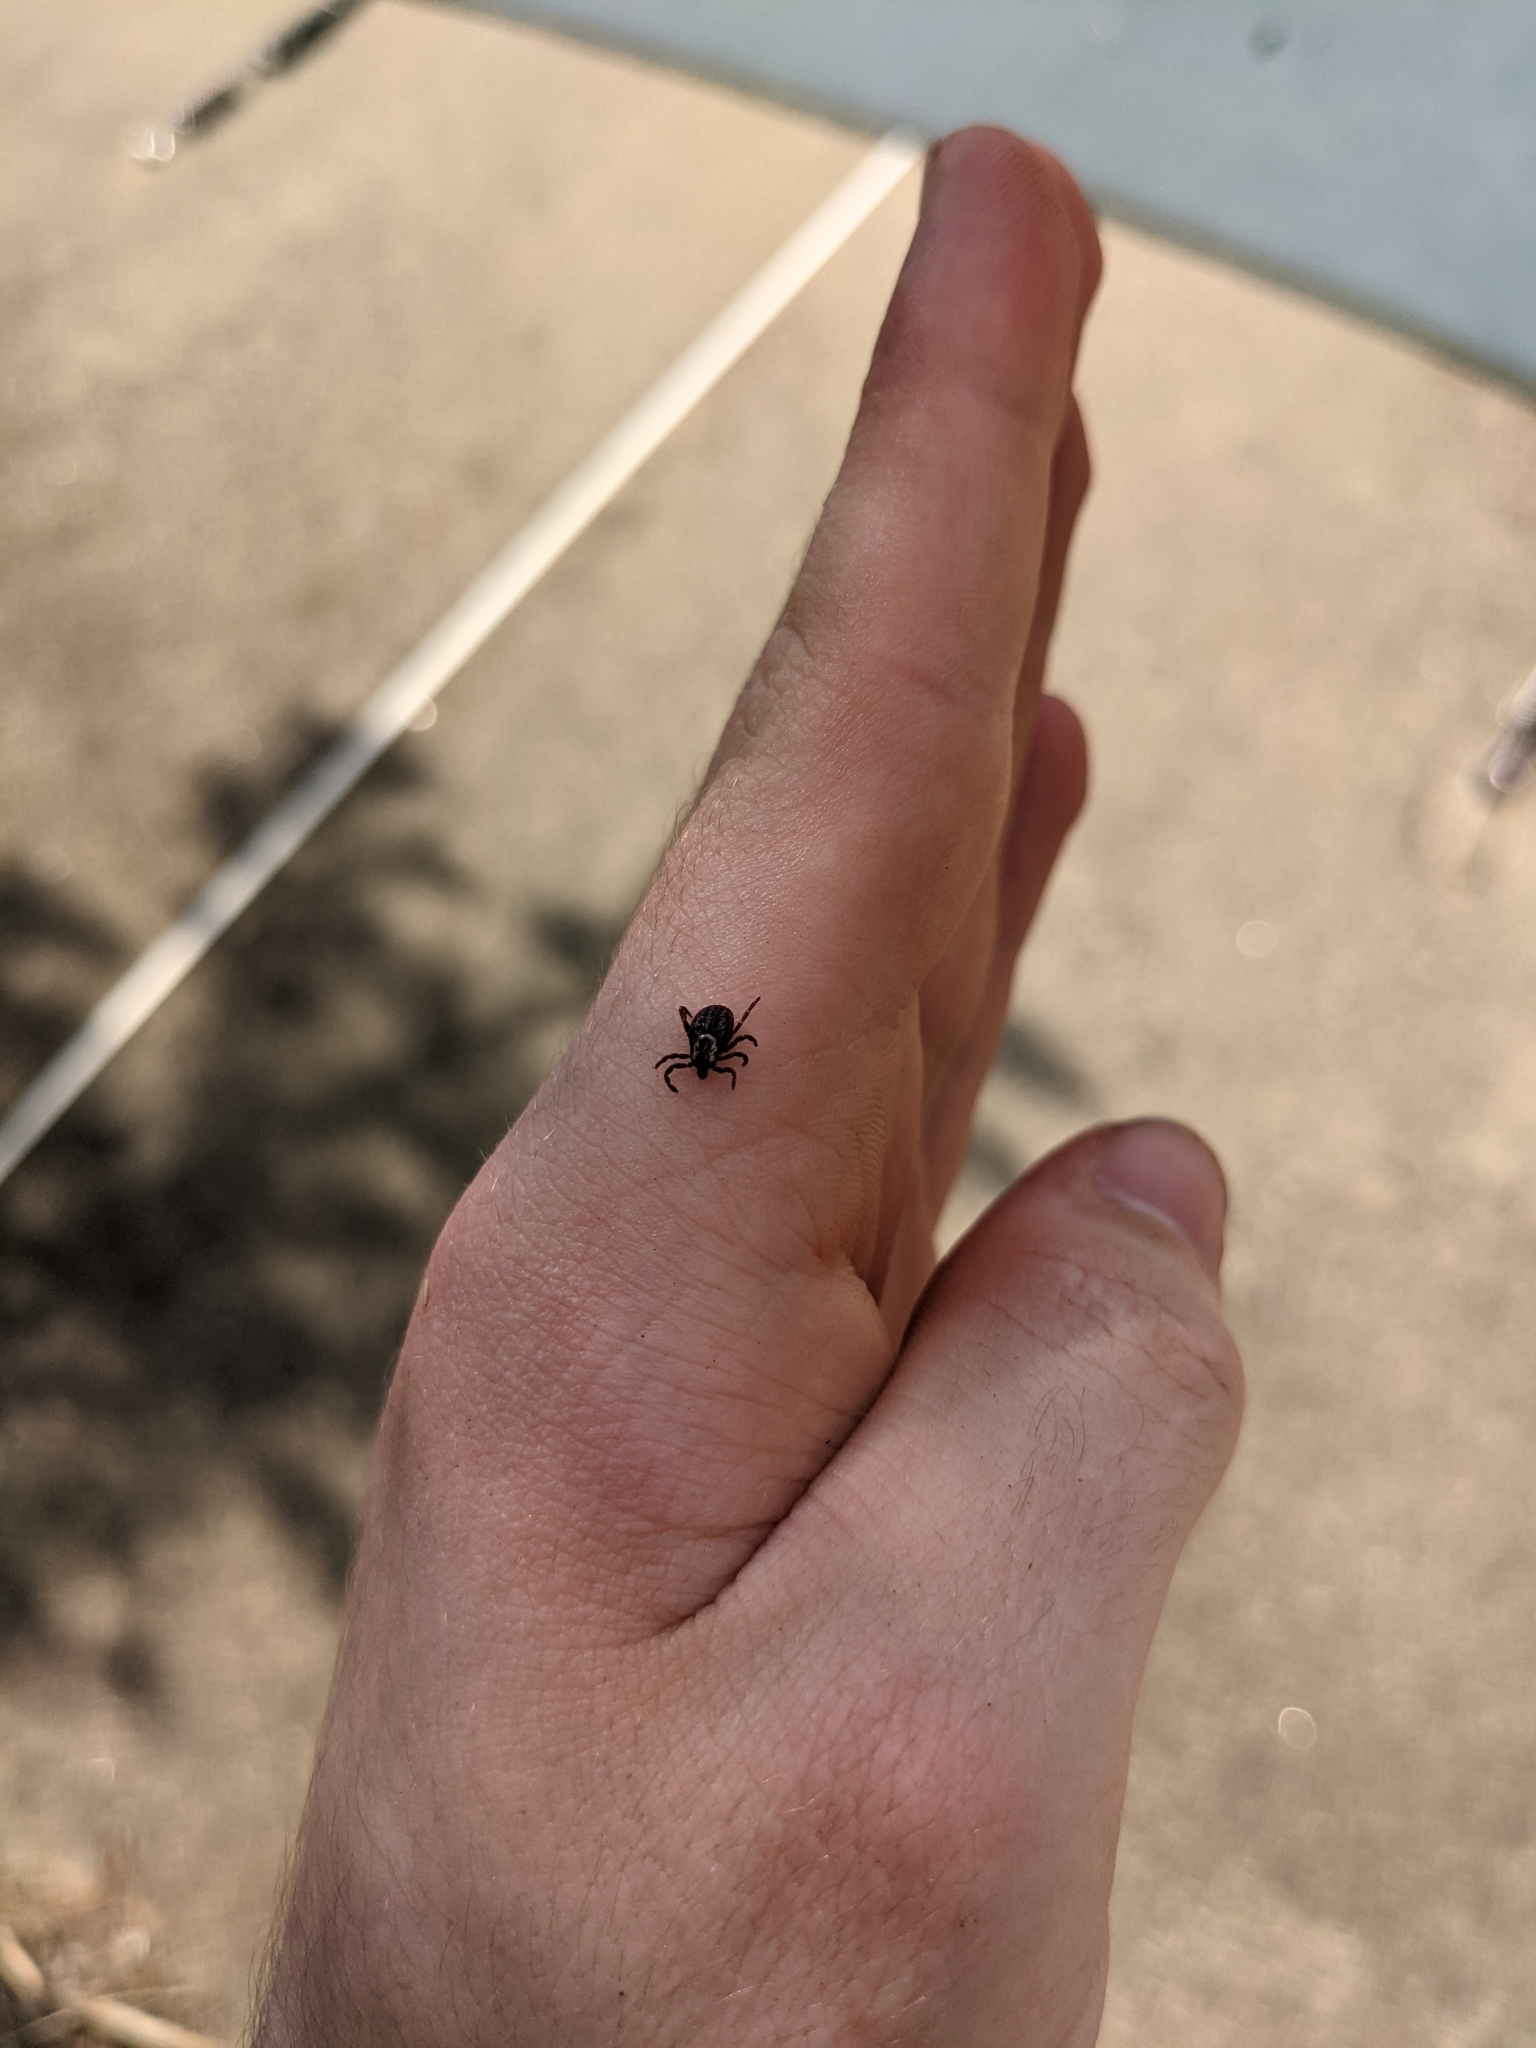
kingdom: Animalia
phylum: Arthropoda
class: Arachnida
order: Ixodida
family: Ixodidae
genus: Dermacentor
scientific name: Dermacentor variabilis
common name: American dog tick
